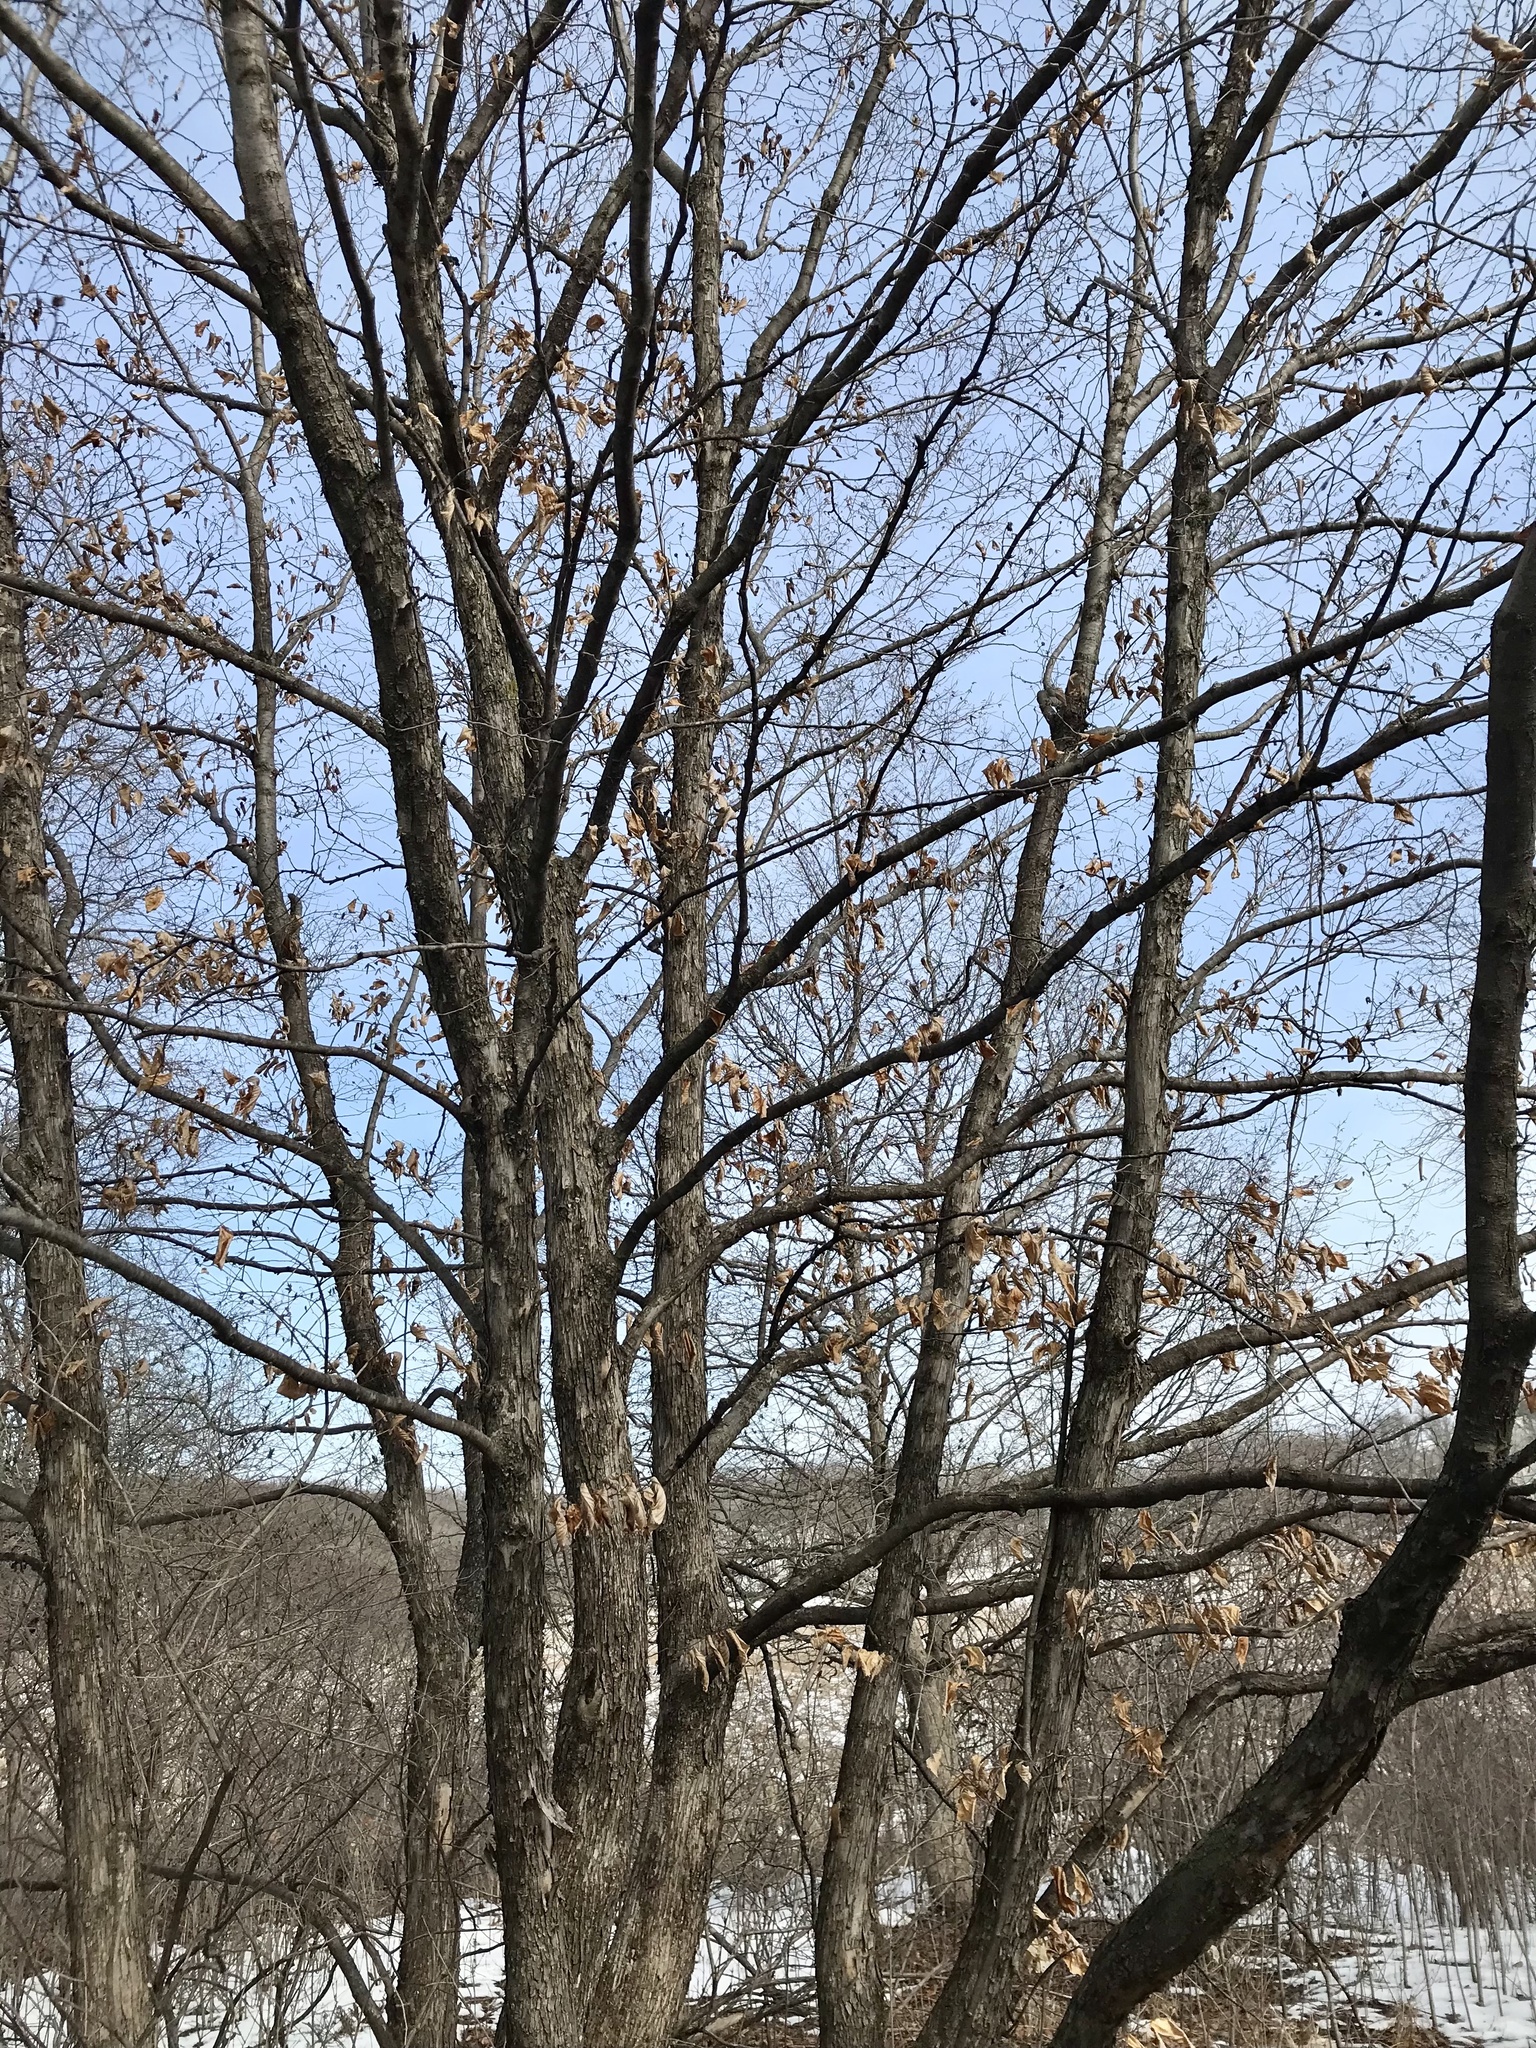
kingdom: Plantae
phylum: Tracheophyta
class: Magnoliopsida
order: Fagales
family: Betulaceae
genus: Ostrya
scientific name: Ostrya virginiana
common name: Ironwood
